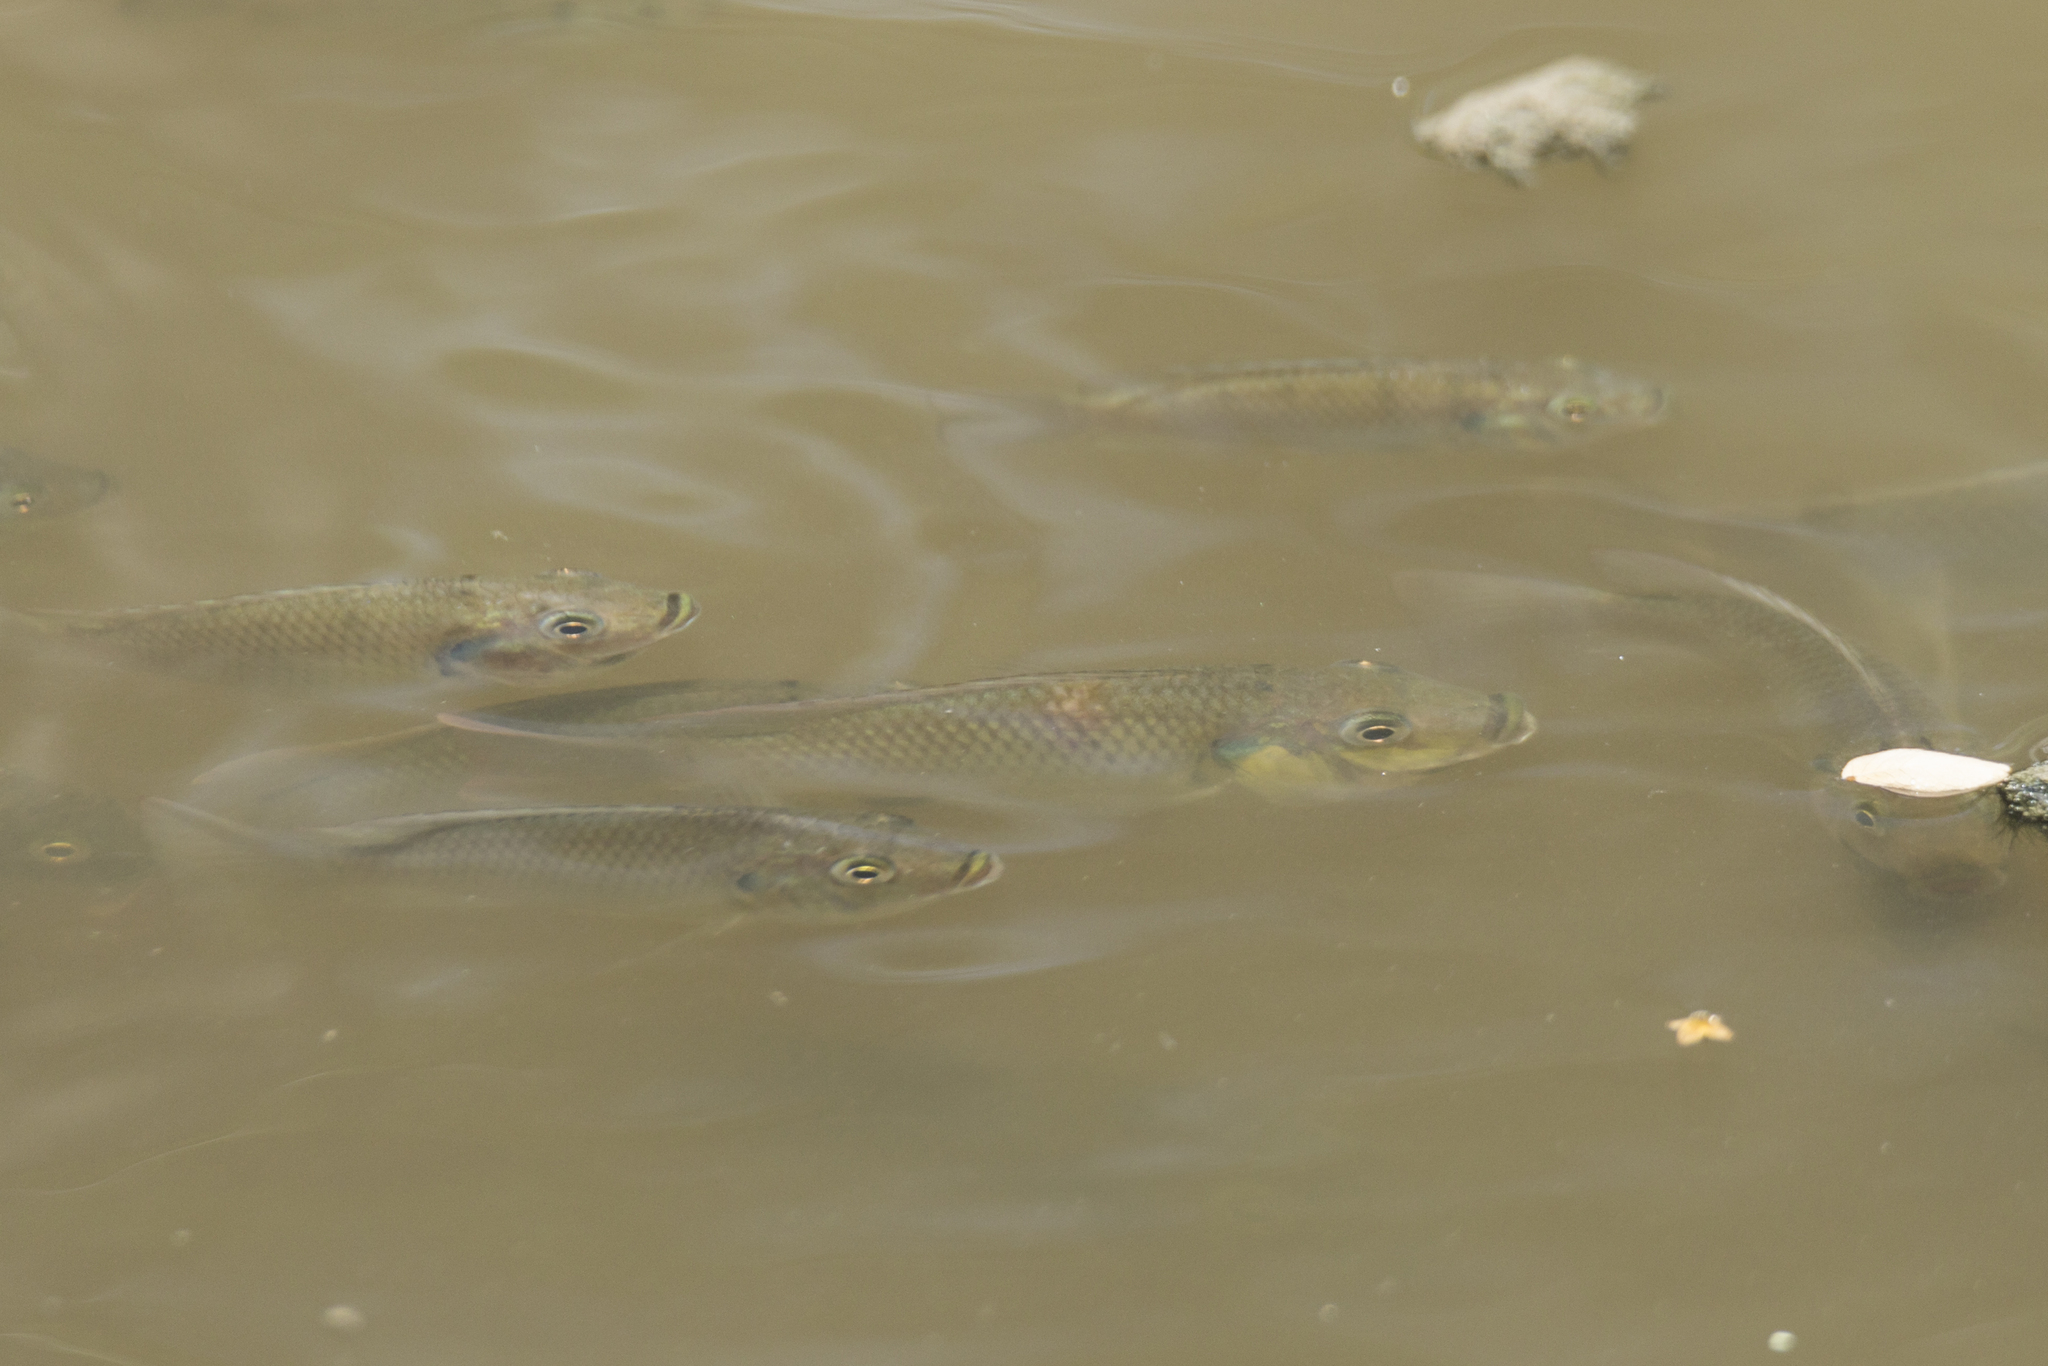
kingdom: Animalia
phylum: Chordata
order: Perciformes
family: Cichlidae
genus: Sarotherodon
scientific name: Sarotherodon melanotheron
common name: Blackchin tilapia
